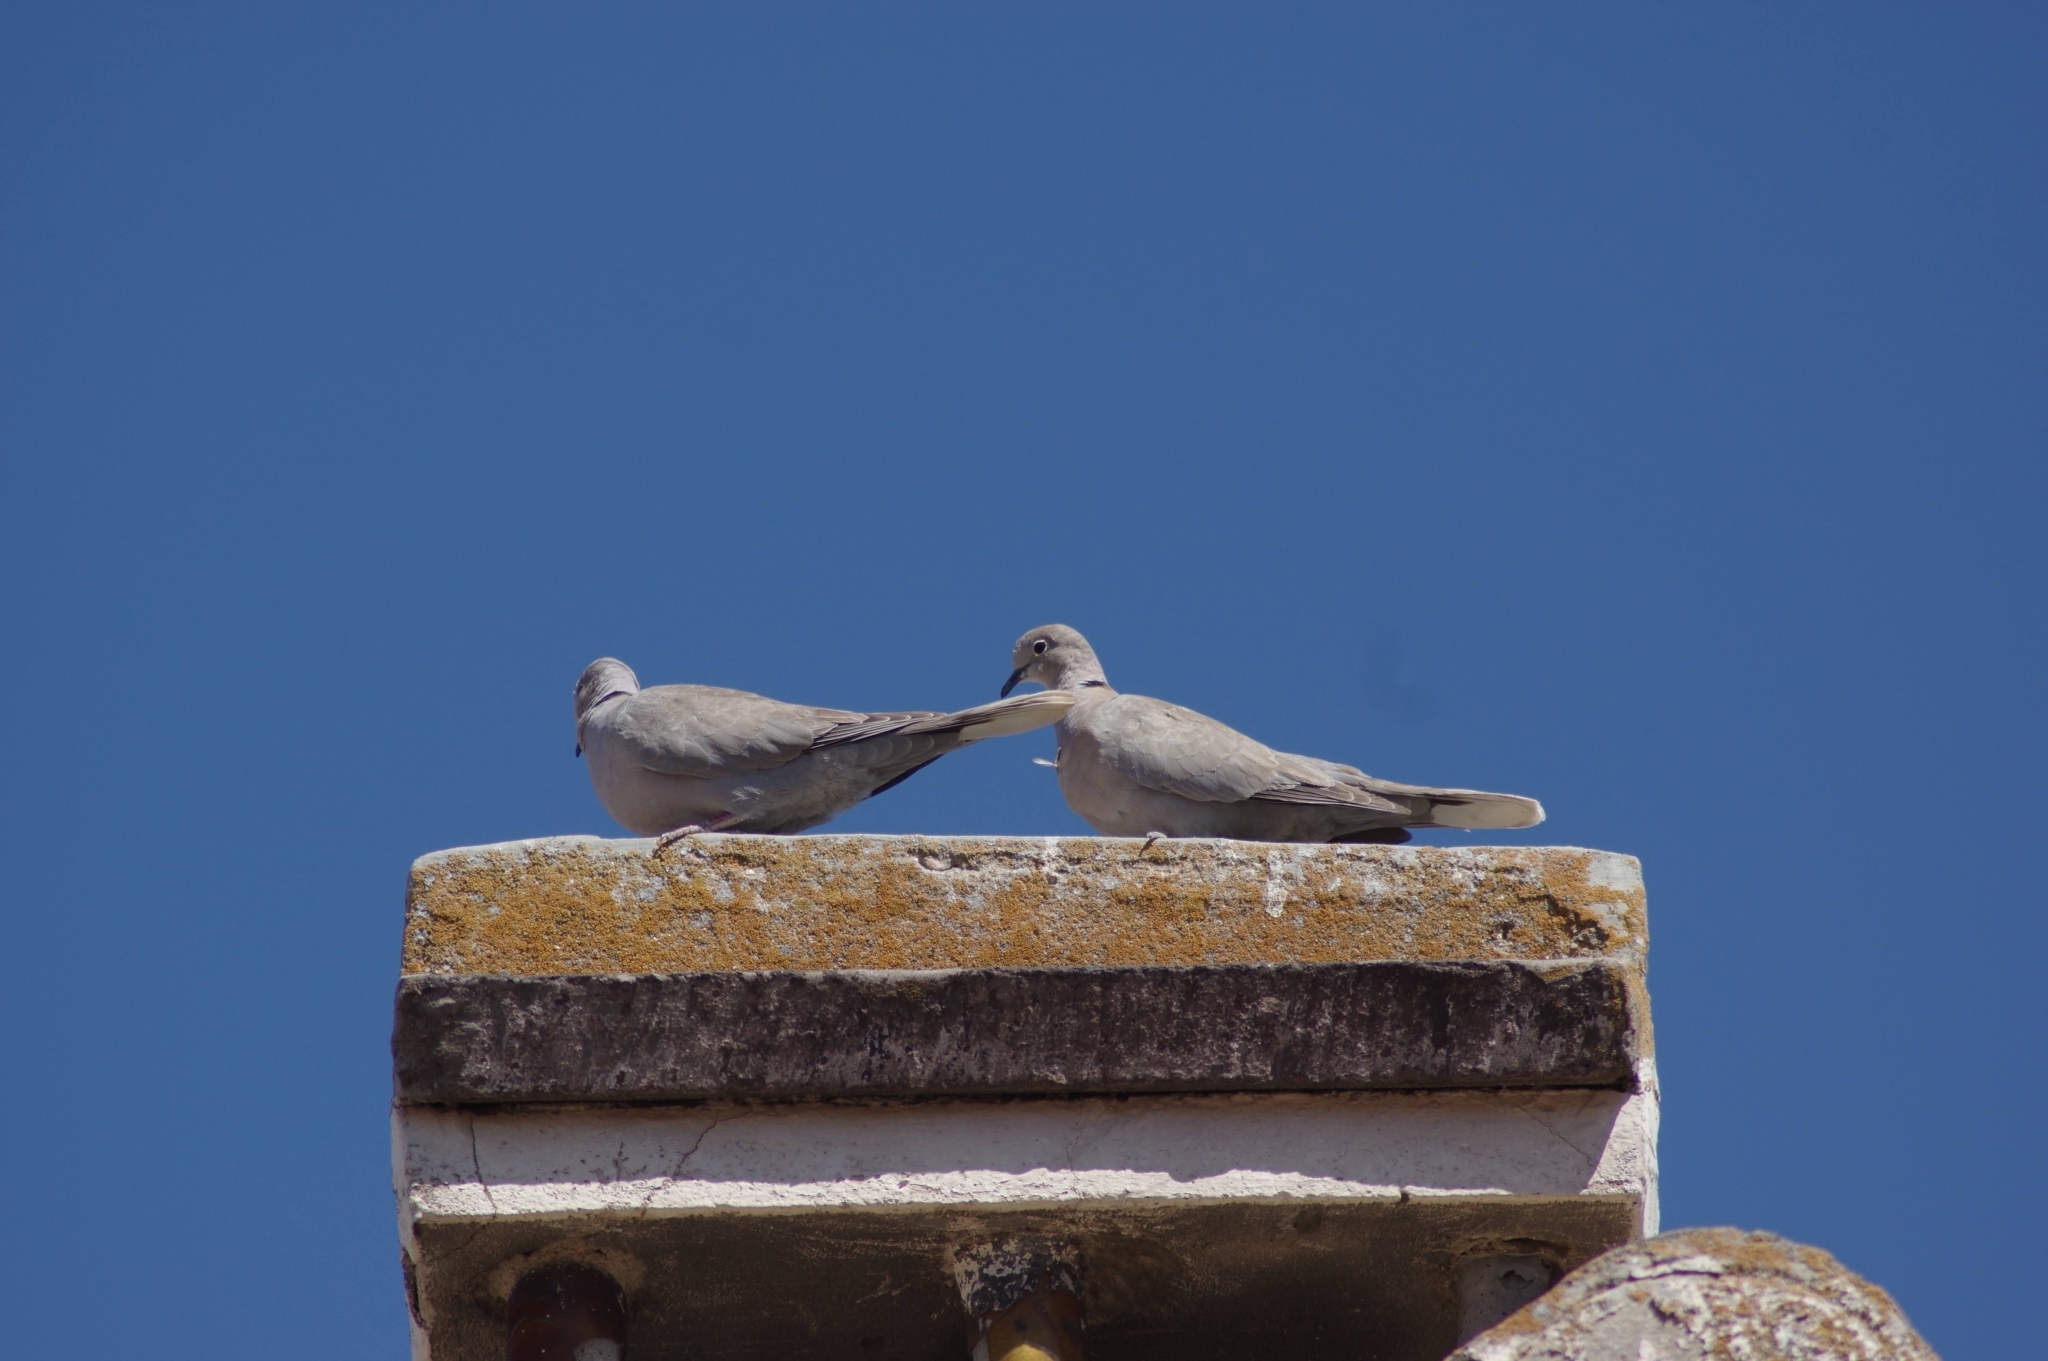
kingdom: Animalia
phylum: Chordata
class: Aves
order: Columbiformes
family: Columbidae
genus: Streptopelia
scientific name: Streptopelia decaocto
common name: Eurasian collared dove
